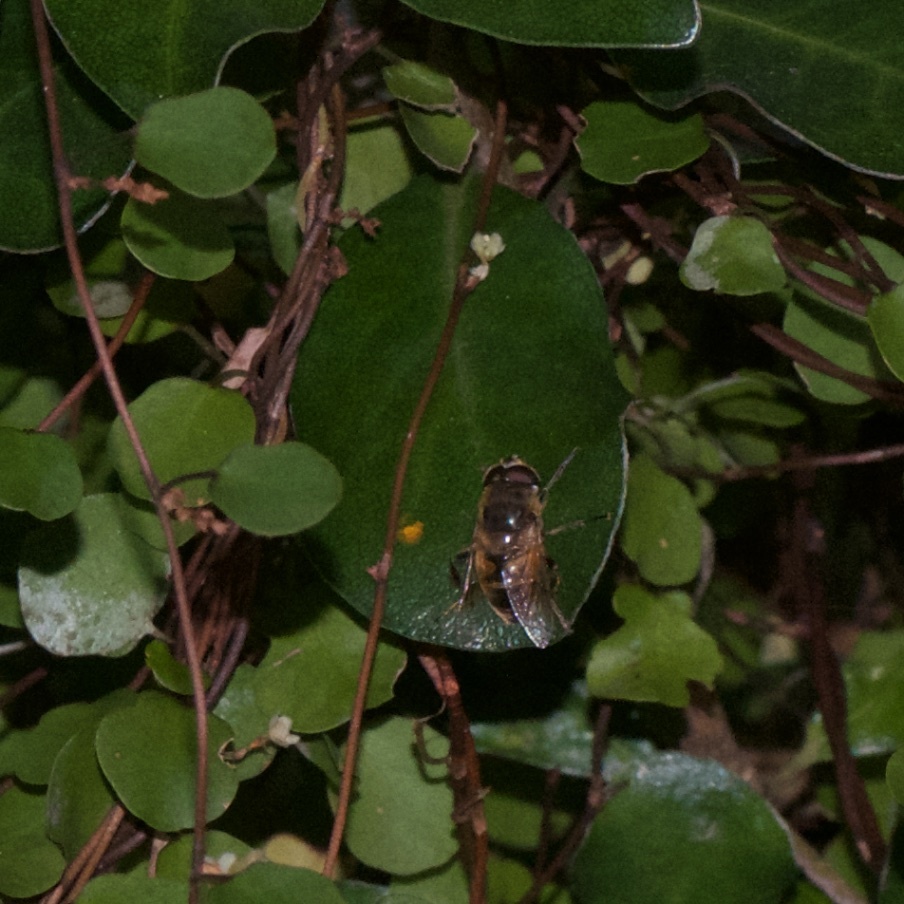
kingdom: Animalia
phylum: Arthropoda
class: Insecta
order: Diptera
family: Syrphidae
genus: Eristalis
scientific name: Eristalis tenax
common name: Drone fly
